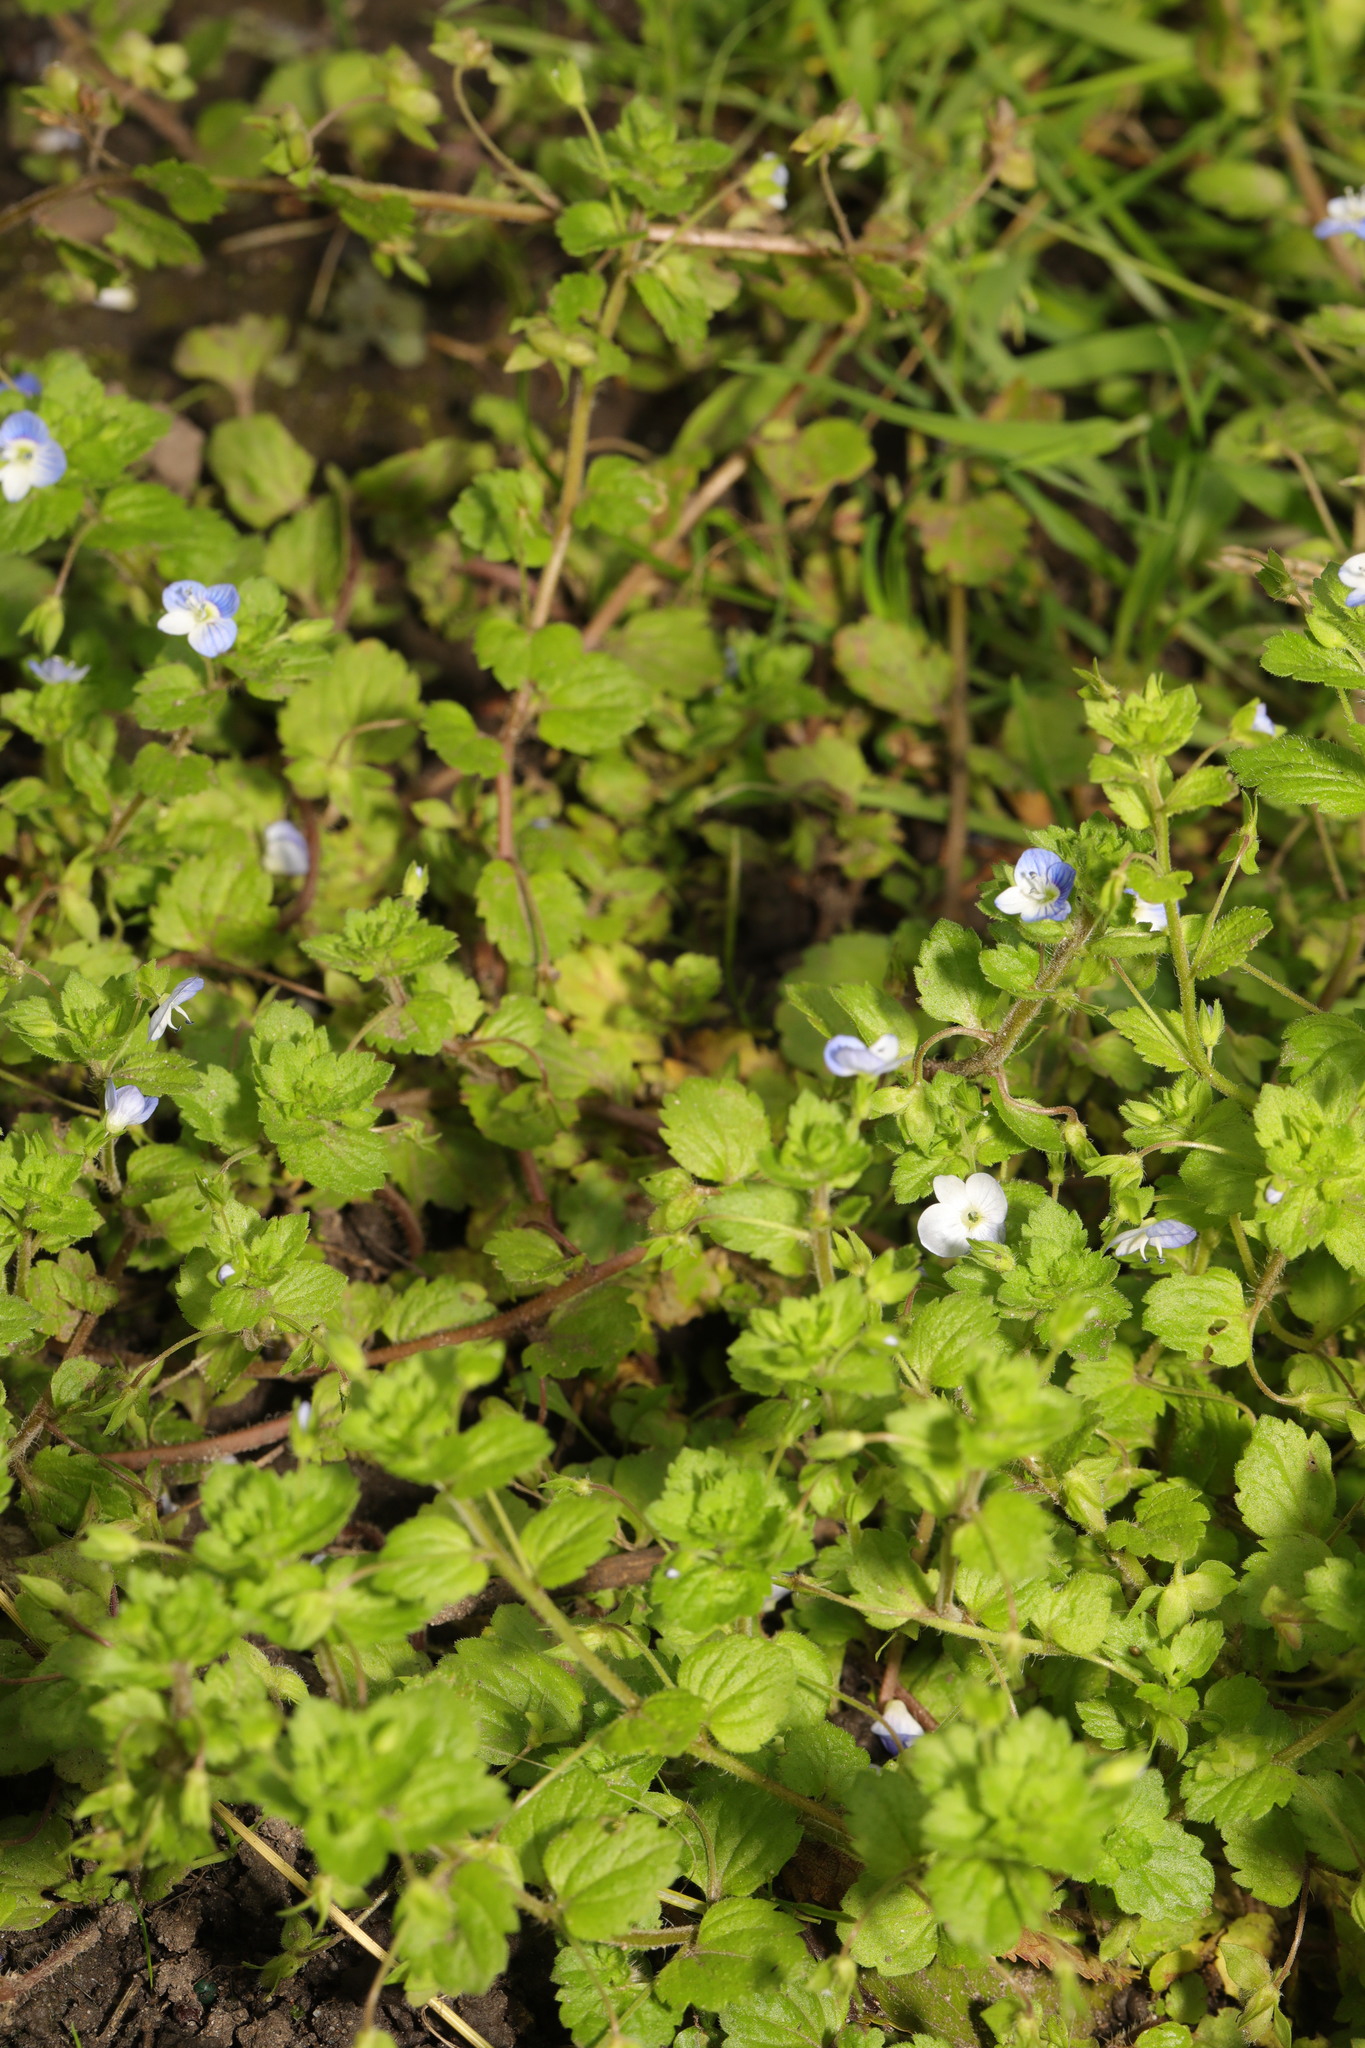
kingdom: Plantae
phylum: Tracheophyta
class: Magnoliopsida
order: Lamiales
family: Plantaginaceae
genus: Veronica
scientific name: Veronica persica
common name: Common field-speedwell
